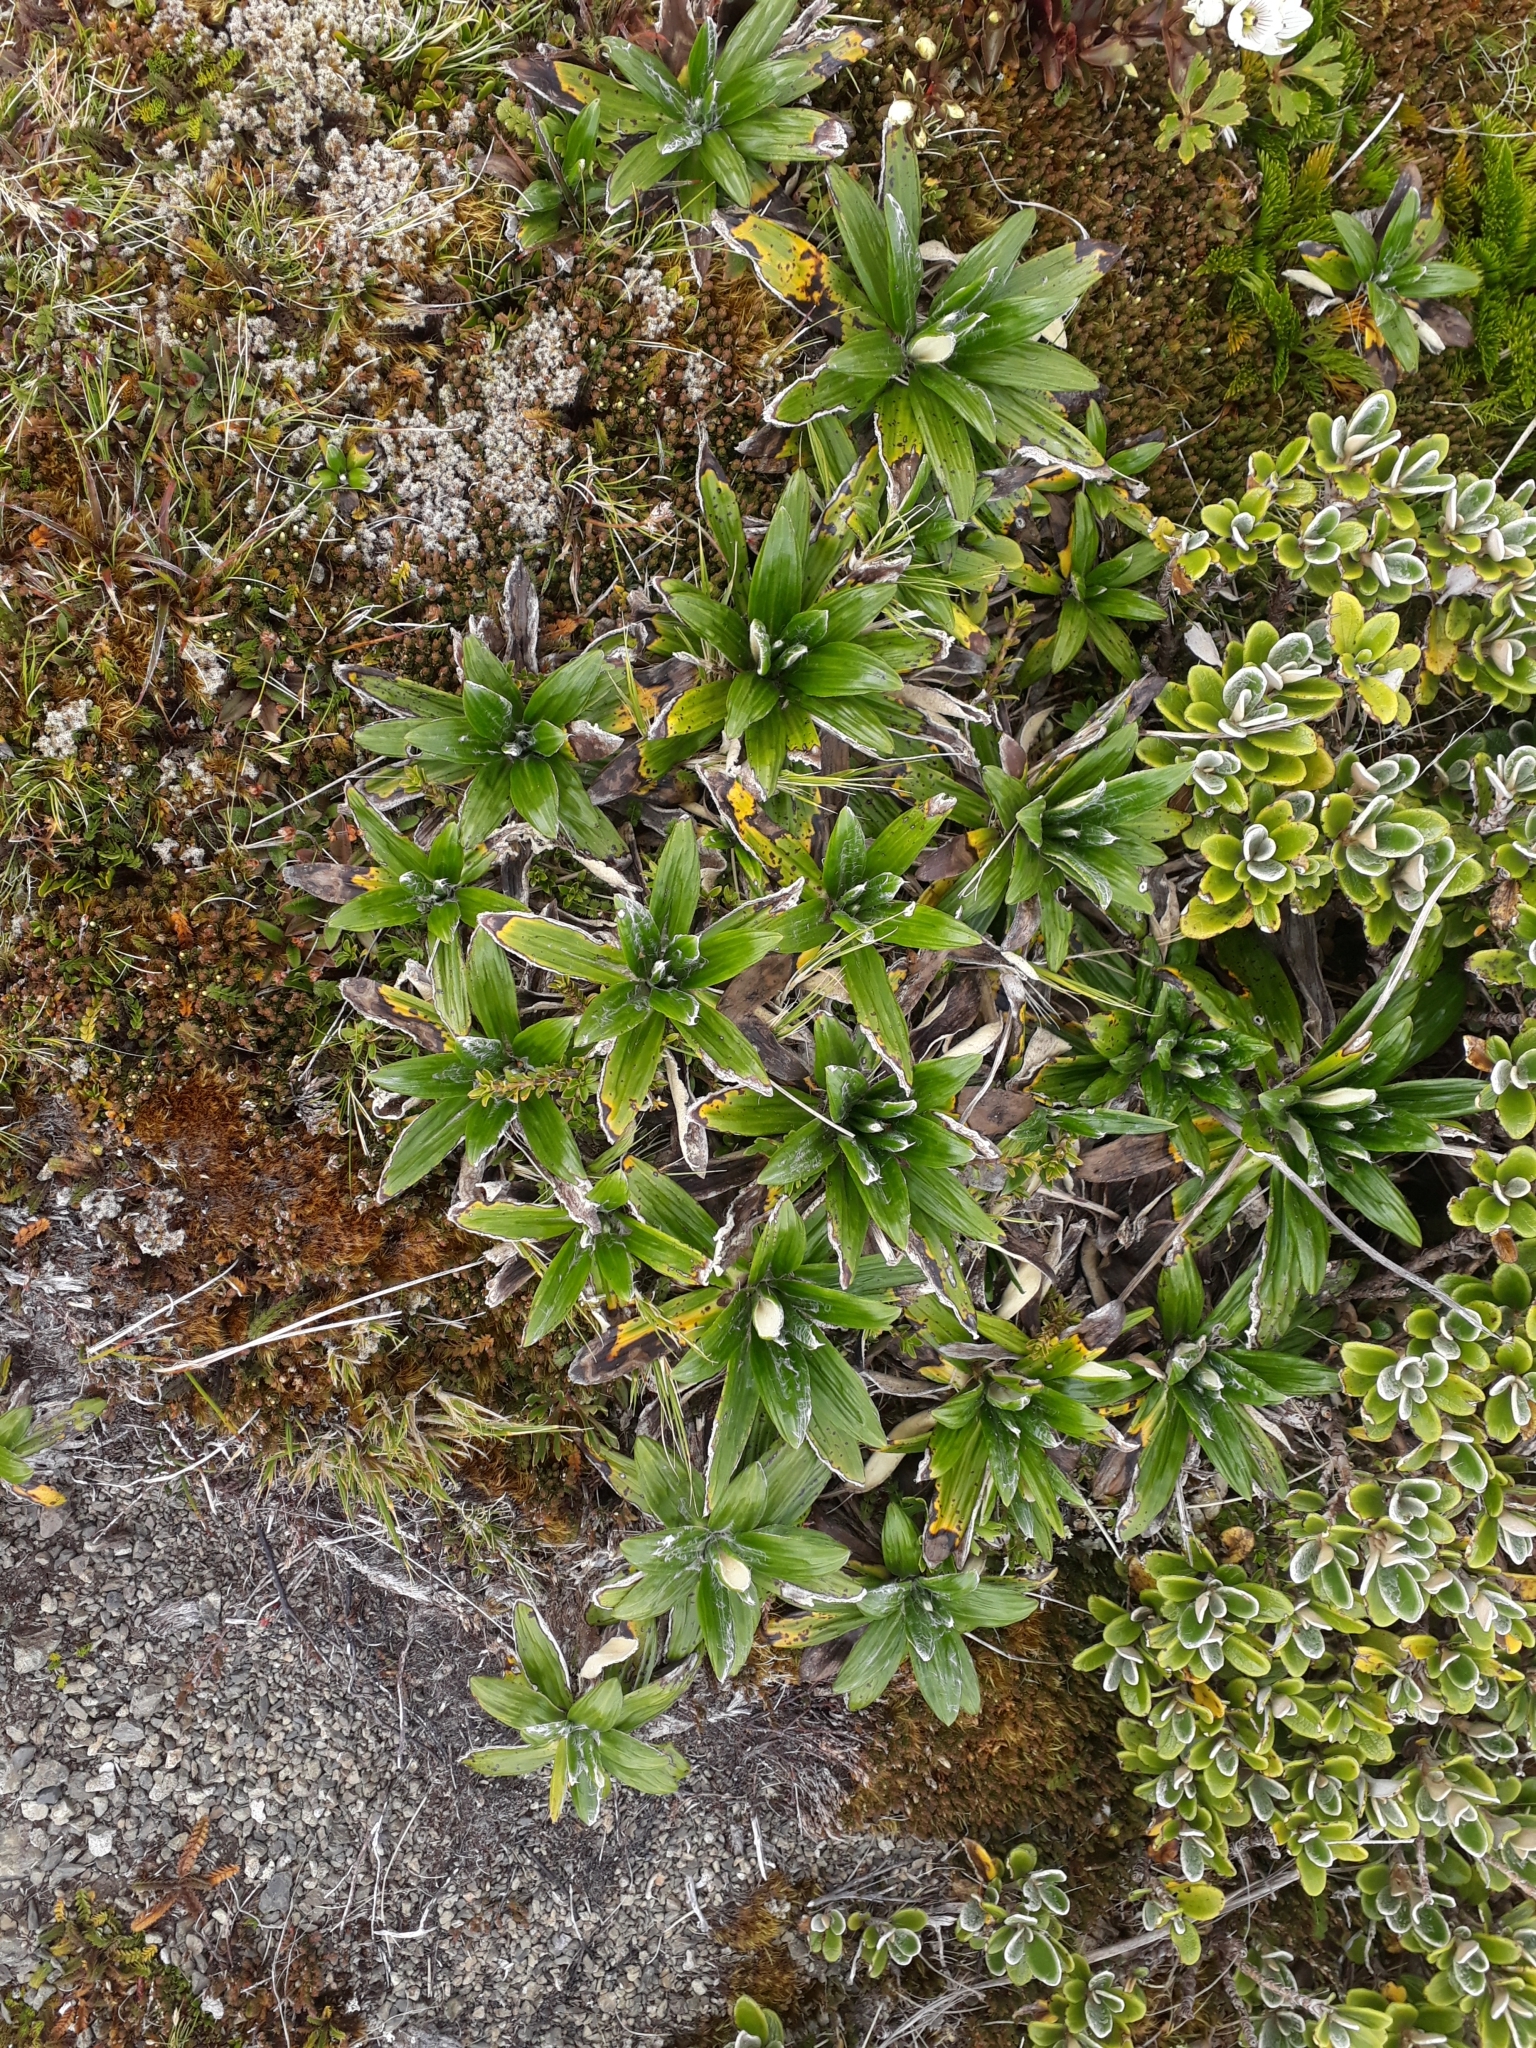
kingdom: Plantae
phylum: Tracheophyta
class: Magnoliopsida
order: Asterales
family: Asteraceae
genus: Celmisia
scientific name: Celmisia spectabilis
